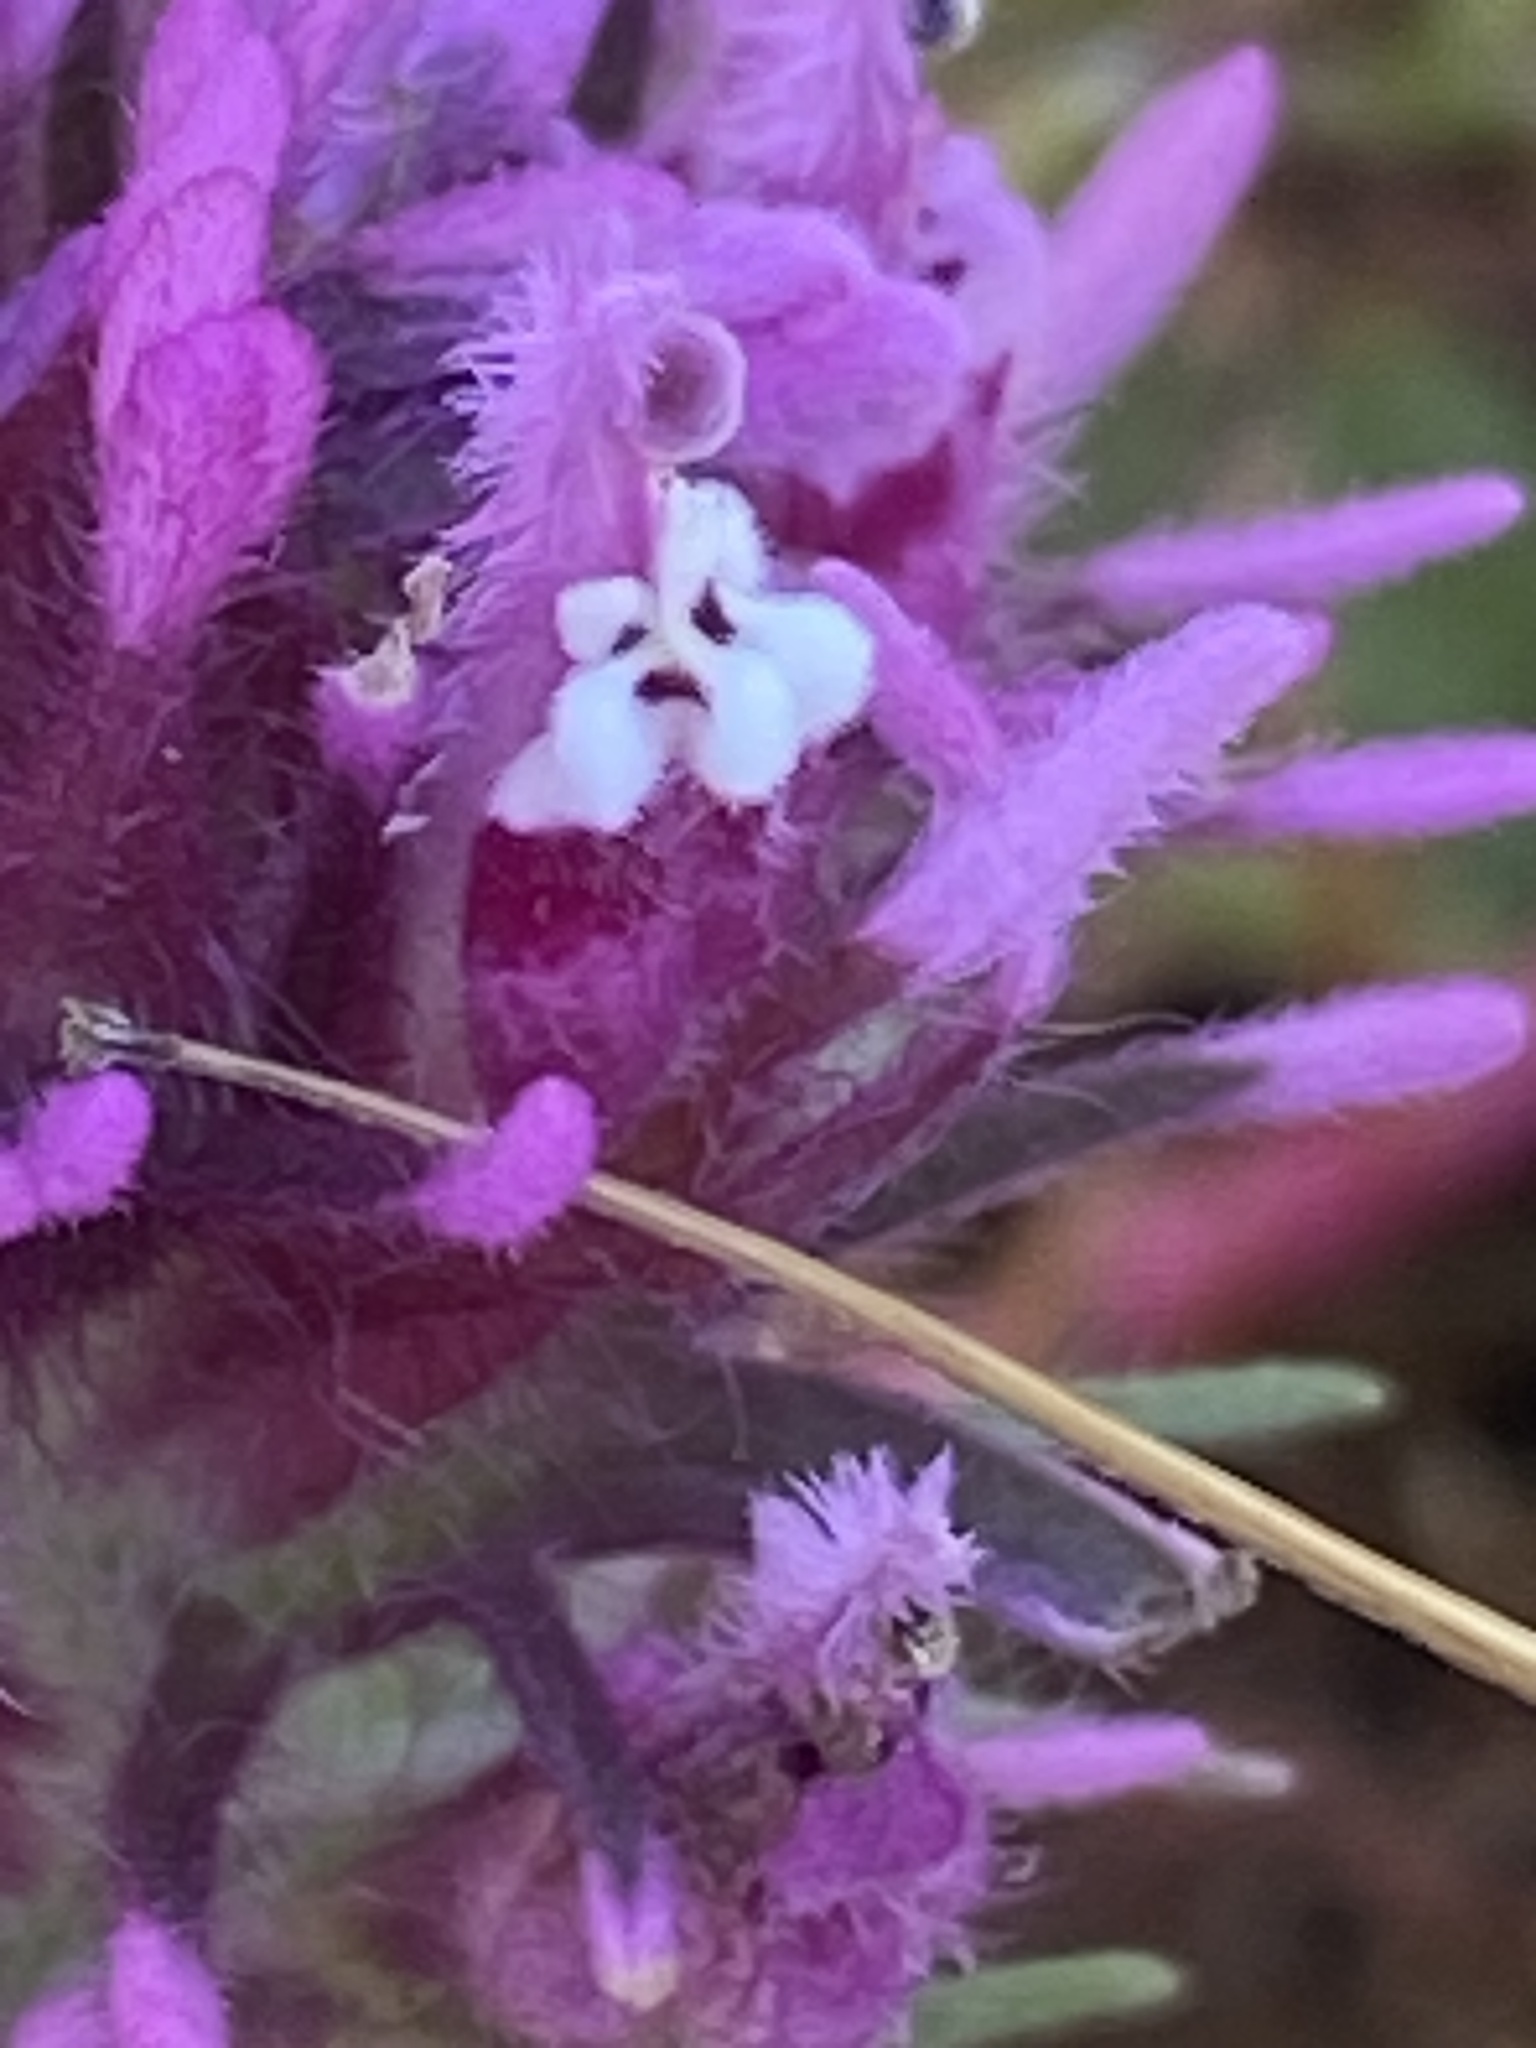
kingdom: Plantae
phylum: Tracheophyta
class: Magnoliopsida
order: Lamiales
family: Orobanchaceae
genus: Castilleja
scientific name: Castilleja exserta
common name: Purple owl-clover
